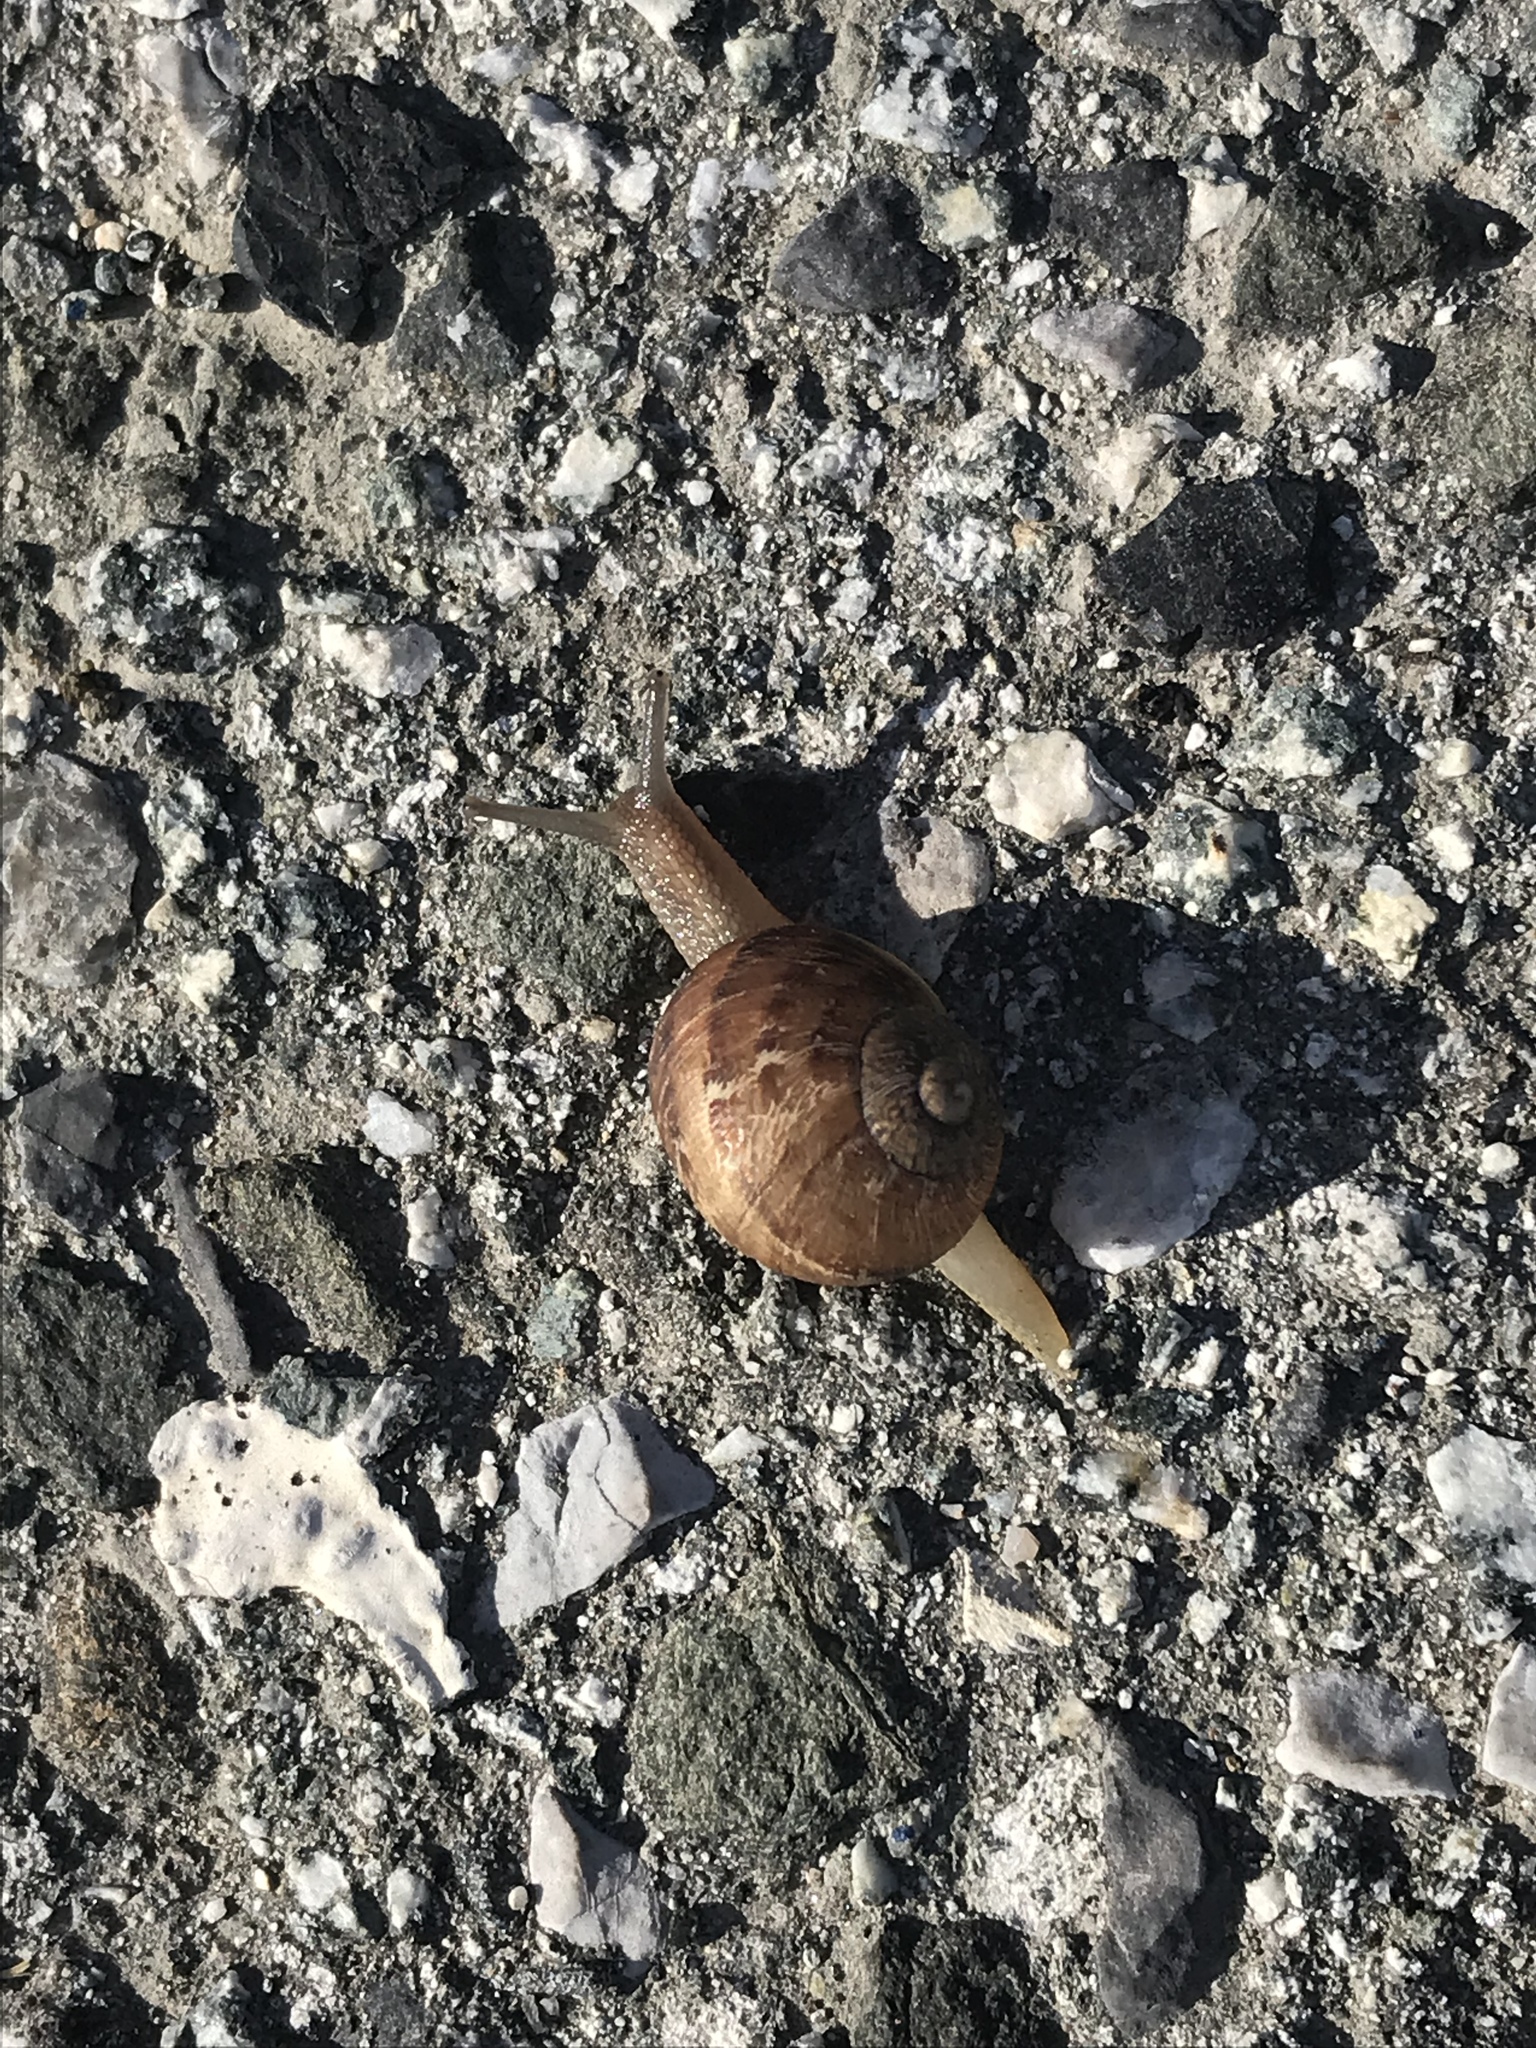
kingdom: Animalia
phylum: Mollusca
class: Gastropoda
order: Stylommatophora
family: Helicidae
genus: Cornu
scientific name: Cornu aspersum
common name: Brown garden snail
